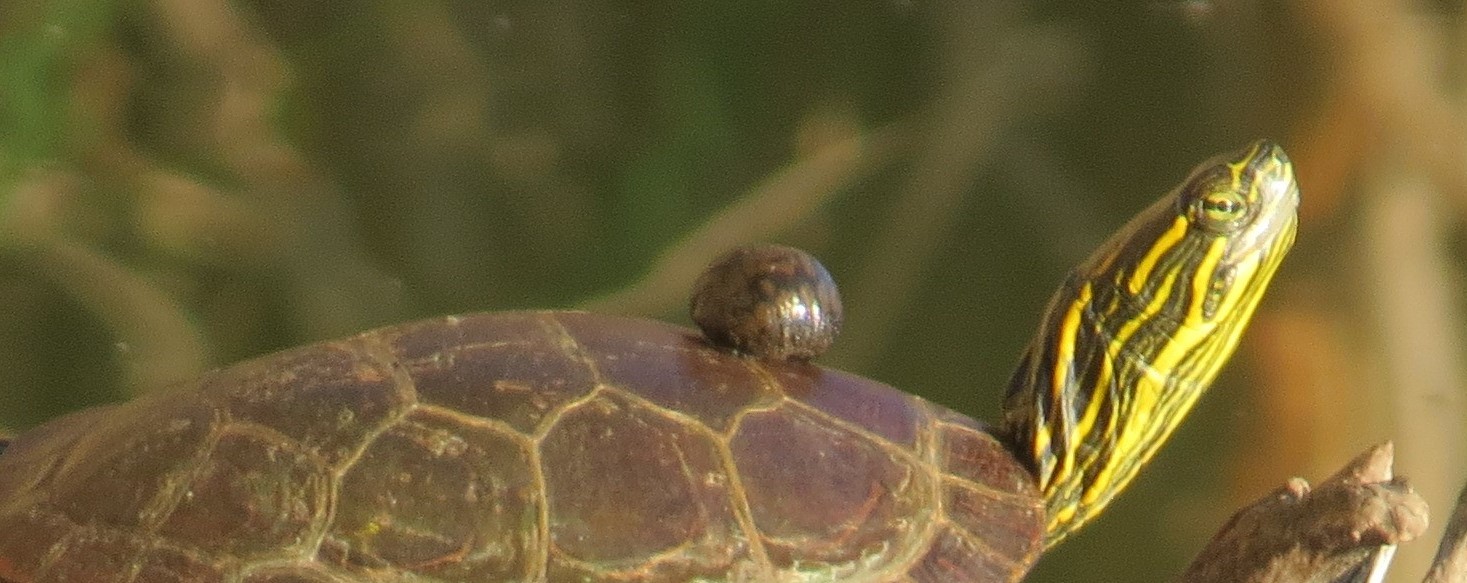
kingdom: Animalia
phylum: Annelida
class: Clitellata
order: Rhynchobdellida
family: Glossiphoniidae
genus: Placobdella
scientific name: Placobdella parasitica
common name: Smooth turtle leech
